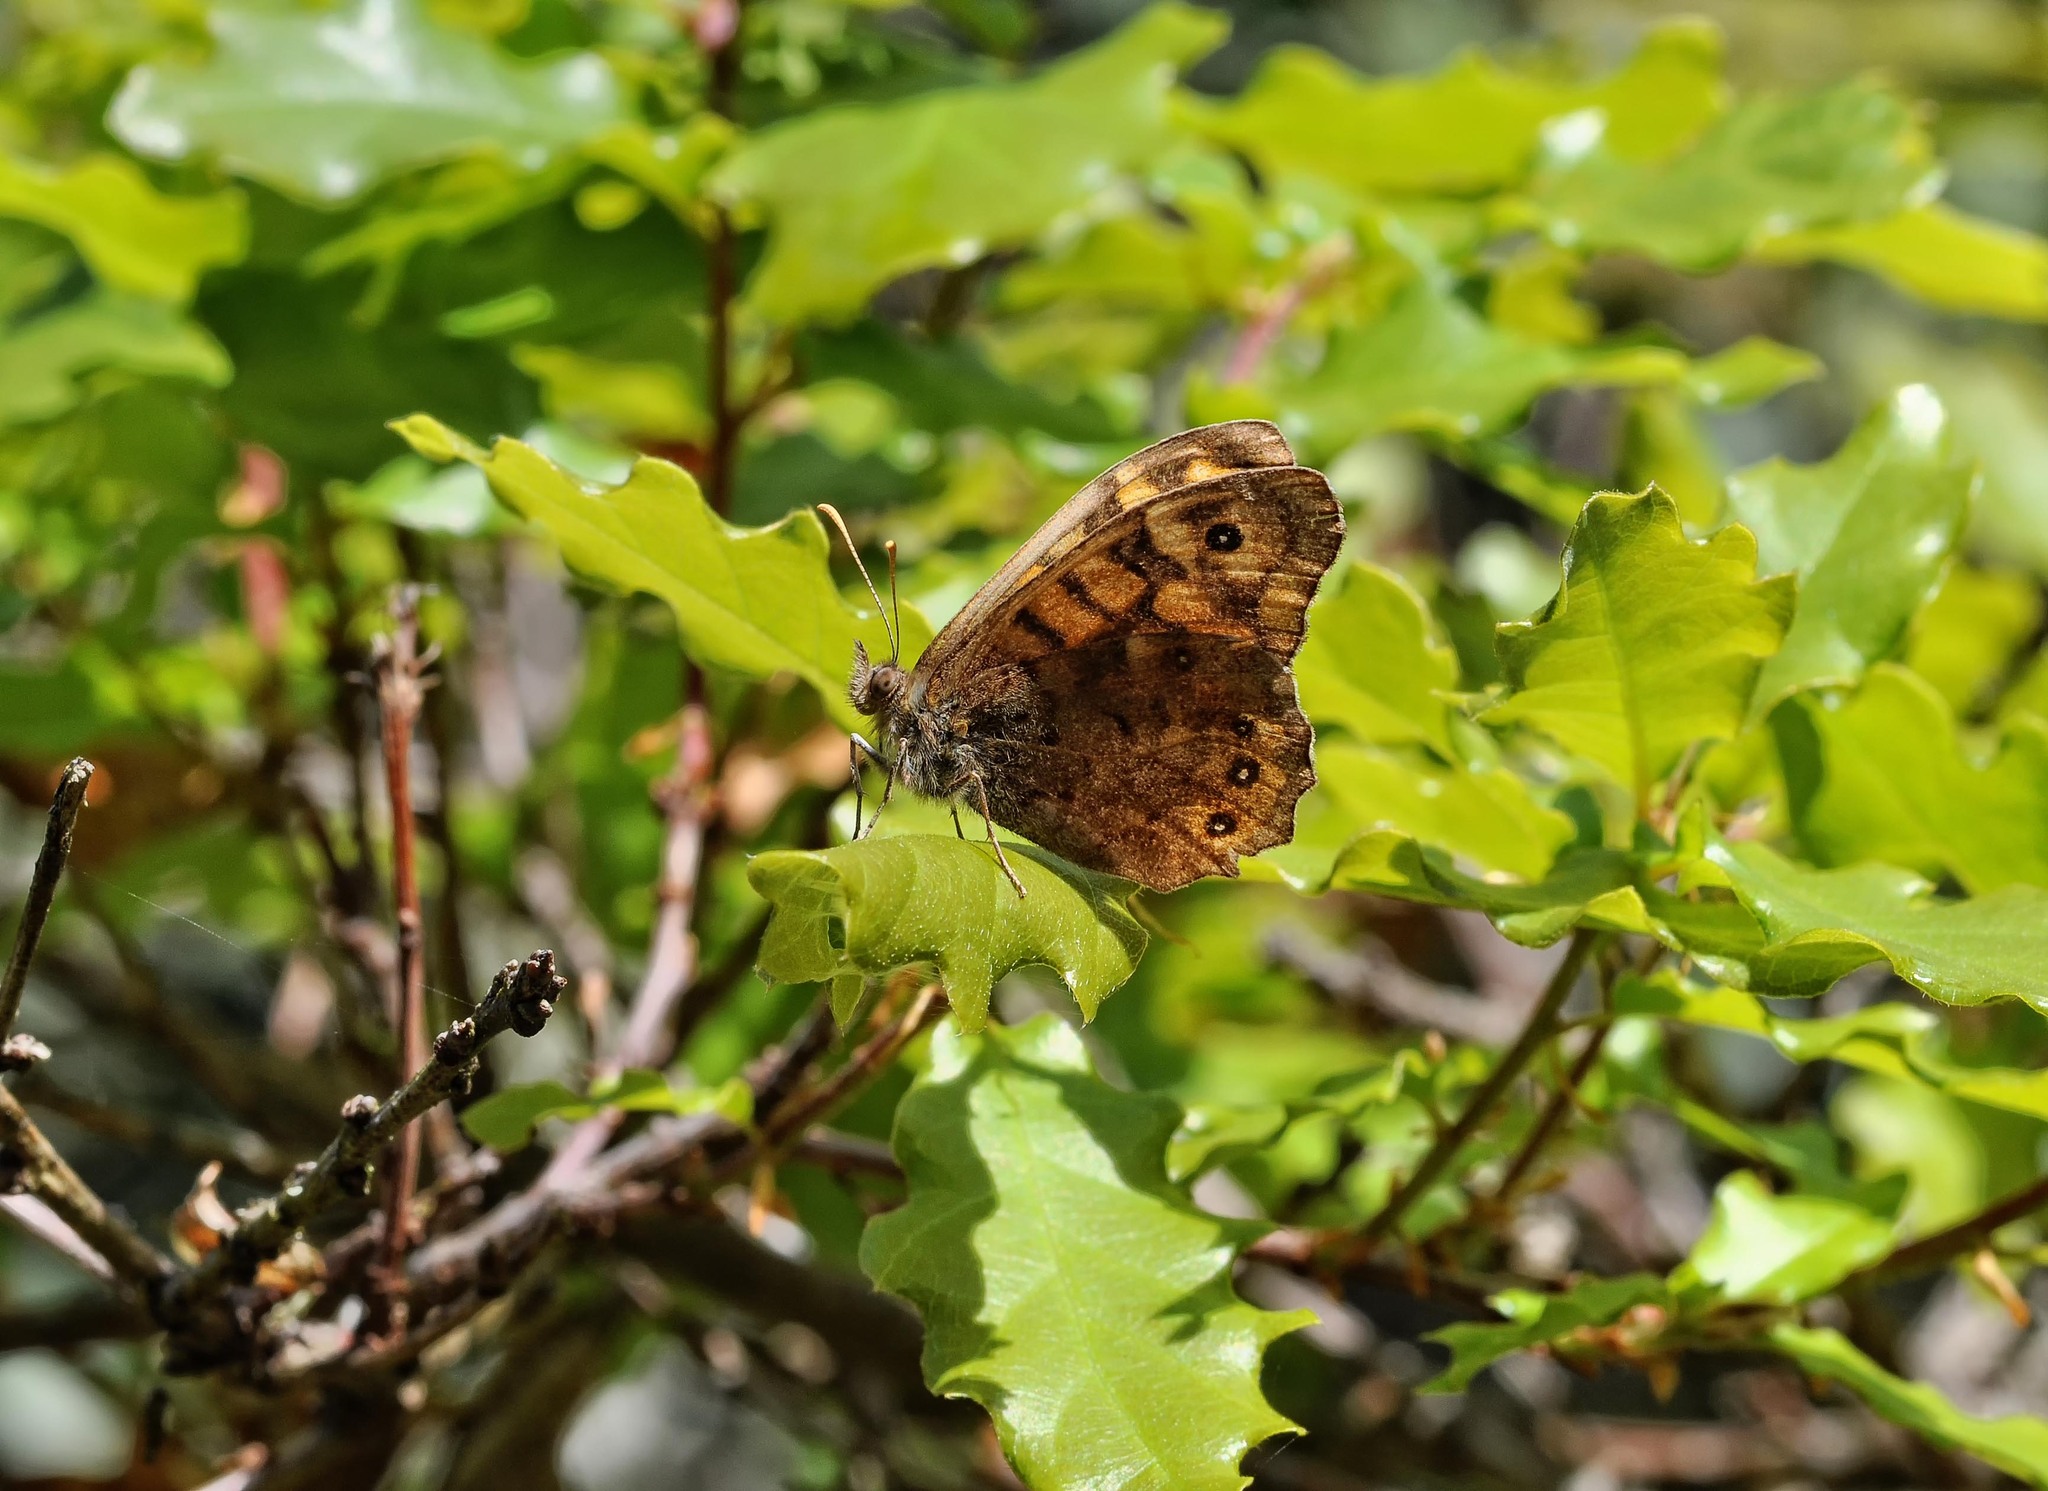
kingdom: Animalia
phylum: Arthropoda
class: Insecta
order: Lepidoptera
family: Nymphalidae
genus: Pararge
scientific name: Pararge aegeria
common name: Speckled wood
